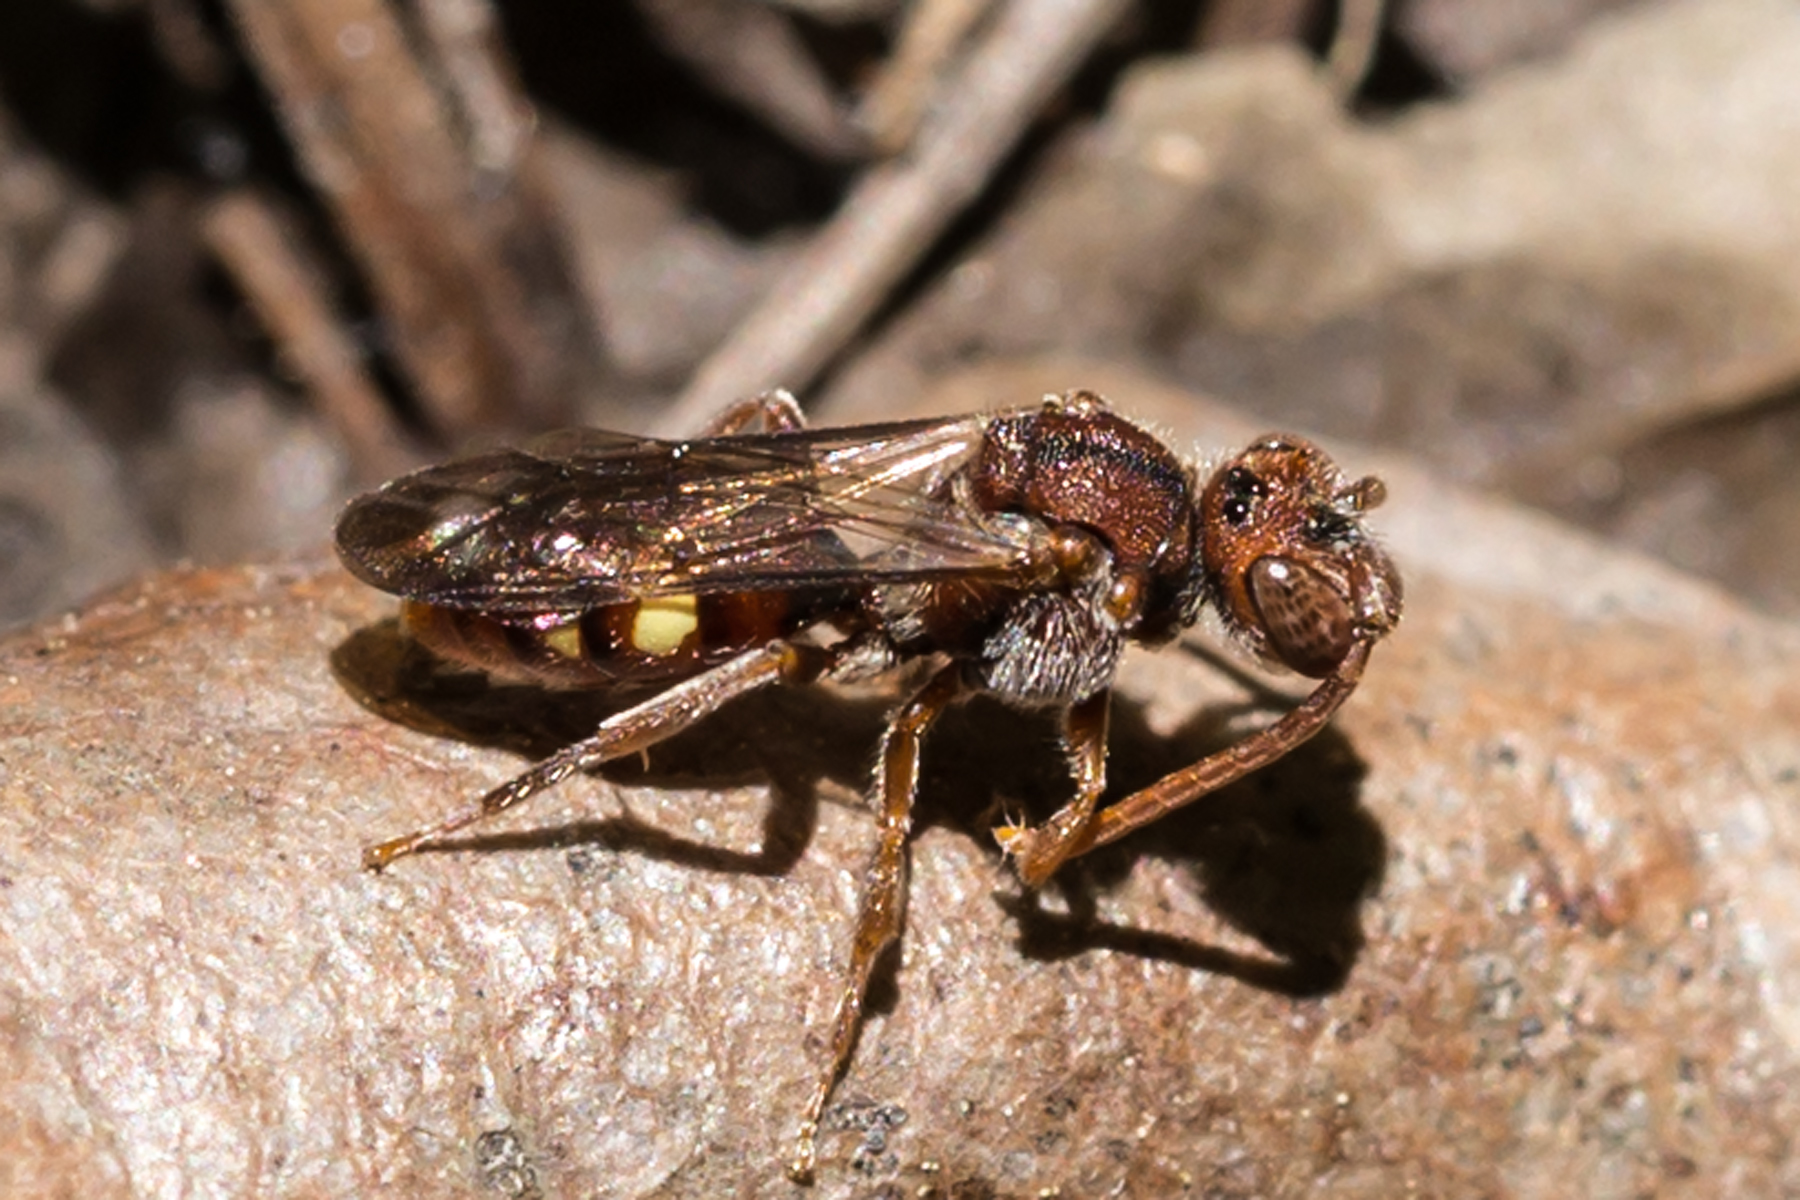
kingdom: Animalia
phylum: Arthropoda
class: Insecta
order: Hymenoptera
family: Apidae
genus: Nomada
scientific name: Nomada
